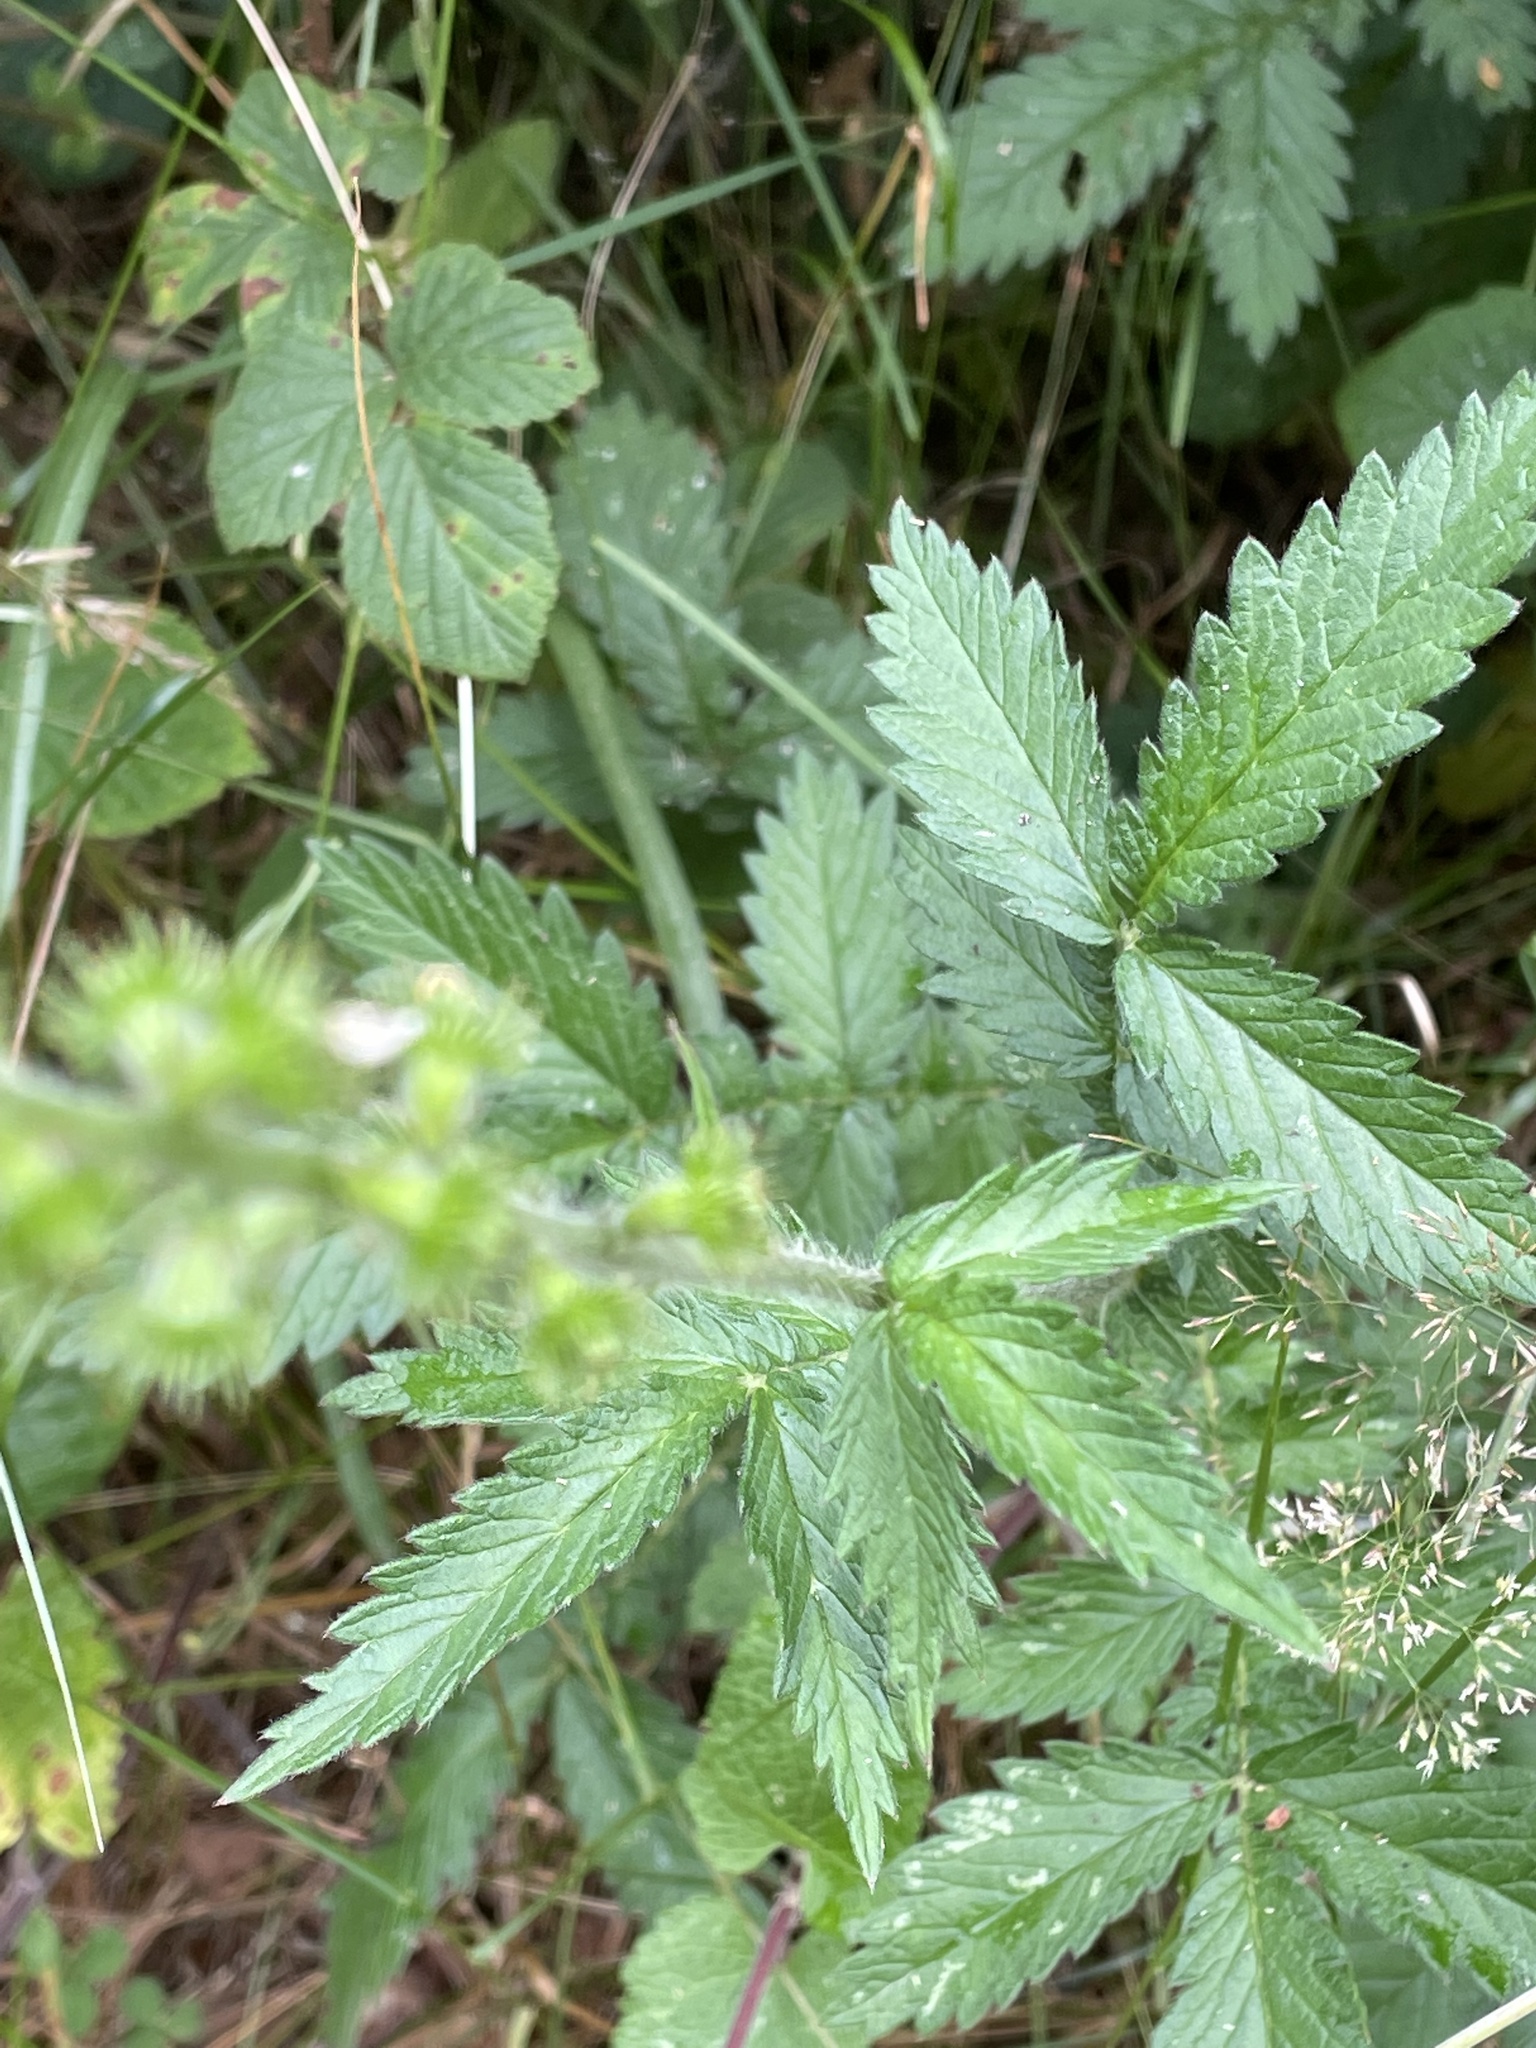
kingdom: Plantae
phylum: Tracheophyta
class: Magnoliopsida
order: Rosales
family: Rosaceae
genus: Agrimonia
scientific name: Agrimonia eupatoria
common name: Agrimony
